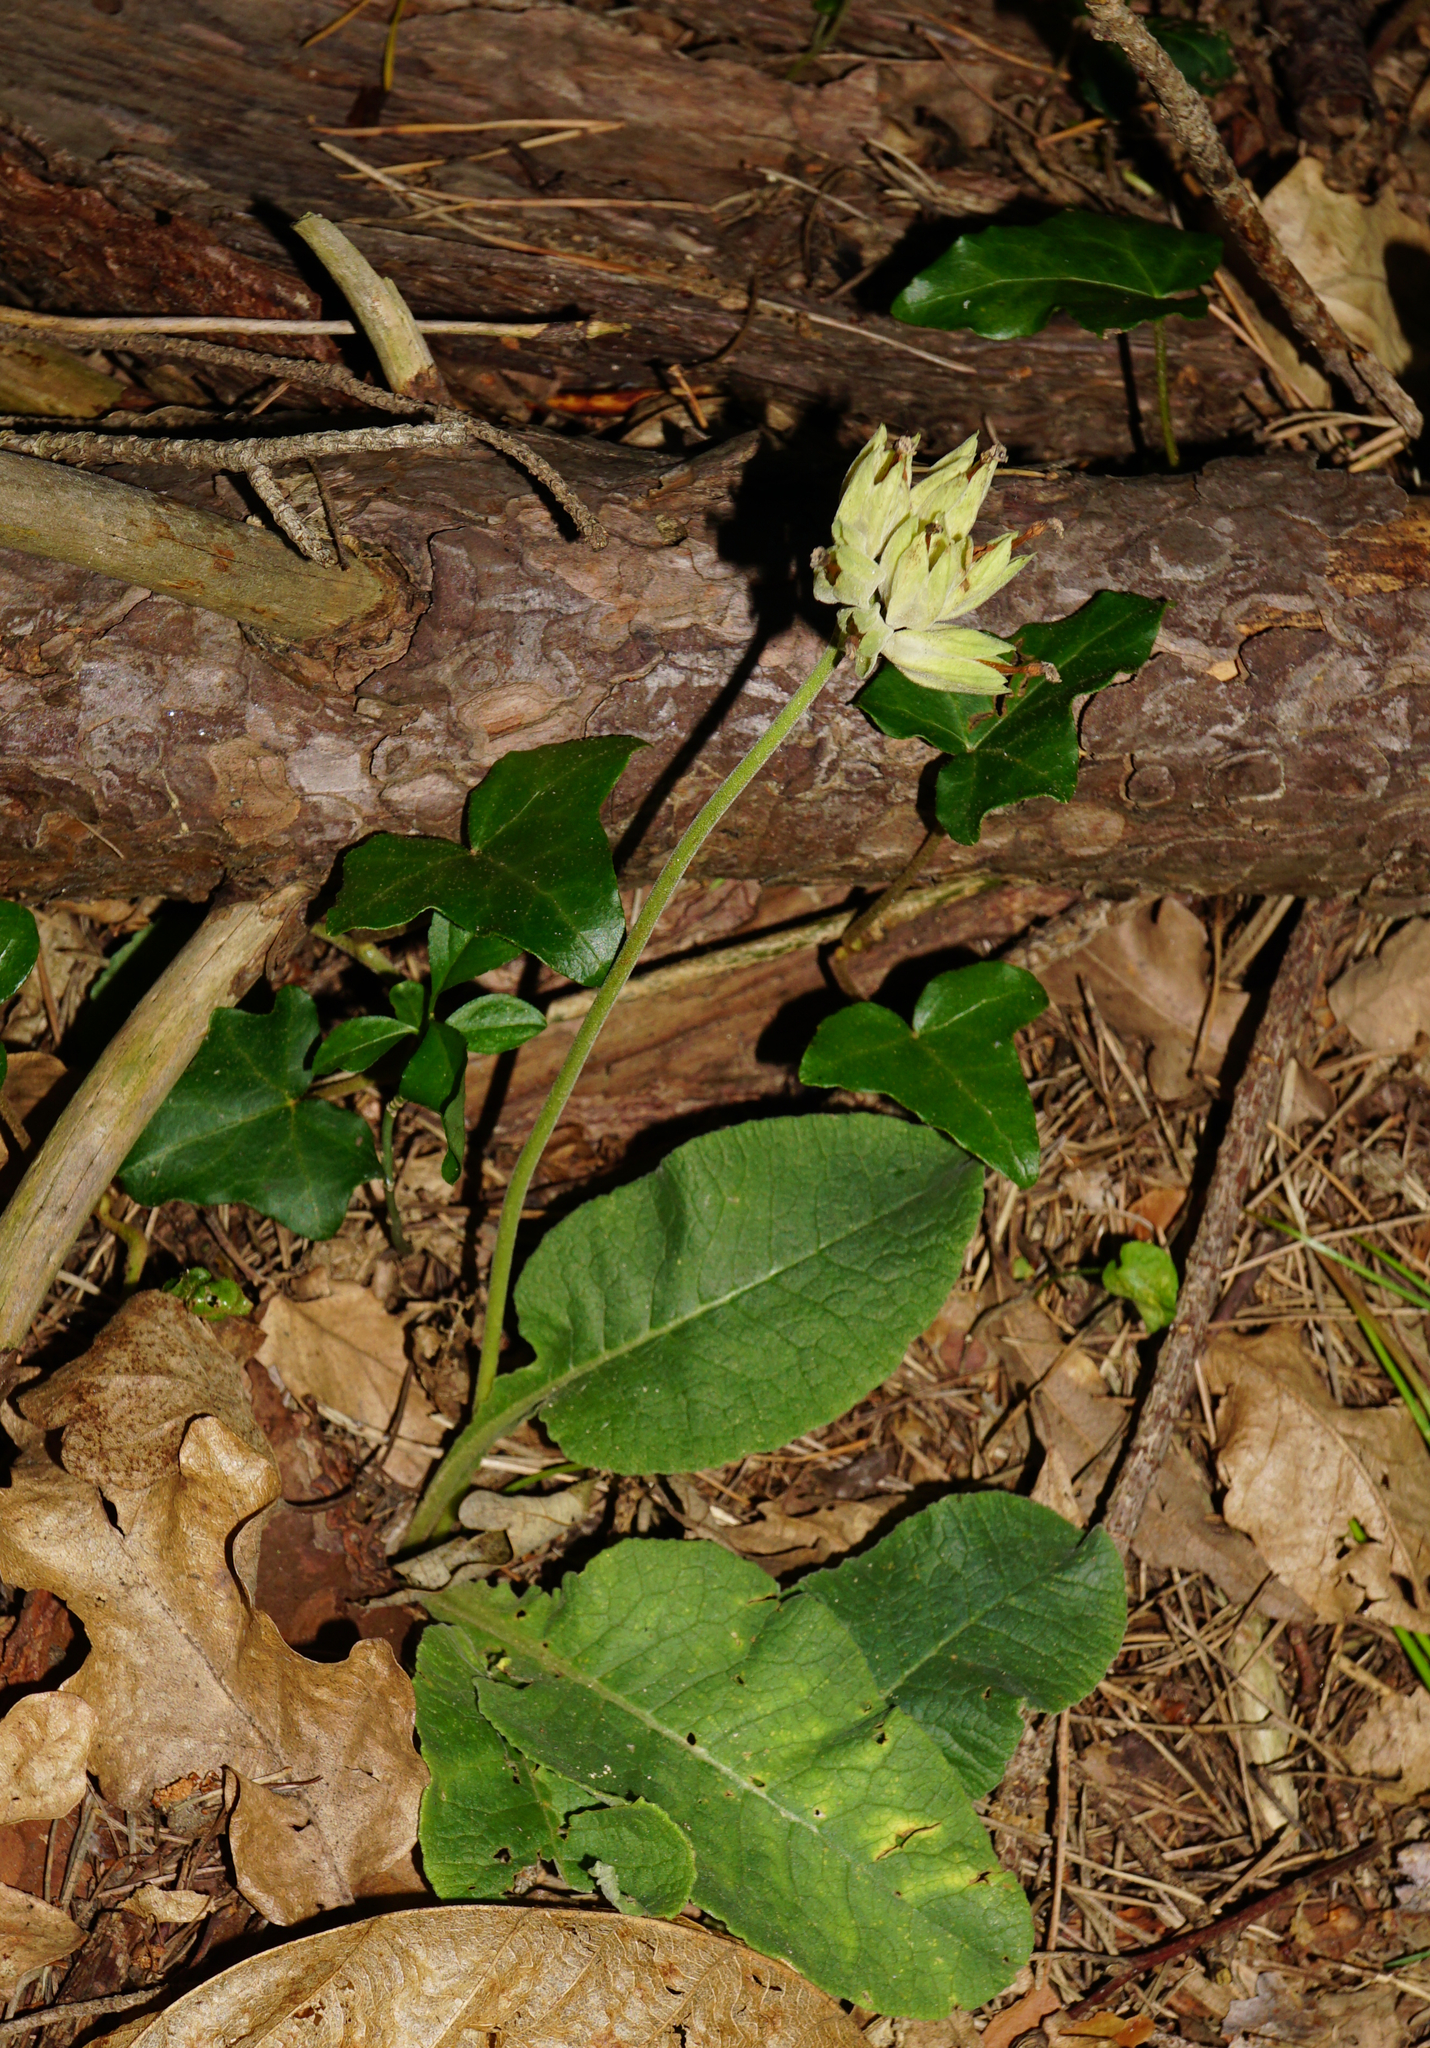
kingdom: Plantae
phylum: Tracheophyta
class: Magnoliopsida
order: Ericales
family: Primulaceae
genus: Primula
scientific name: Primula veris
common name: Cowslip
